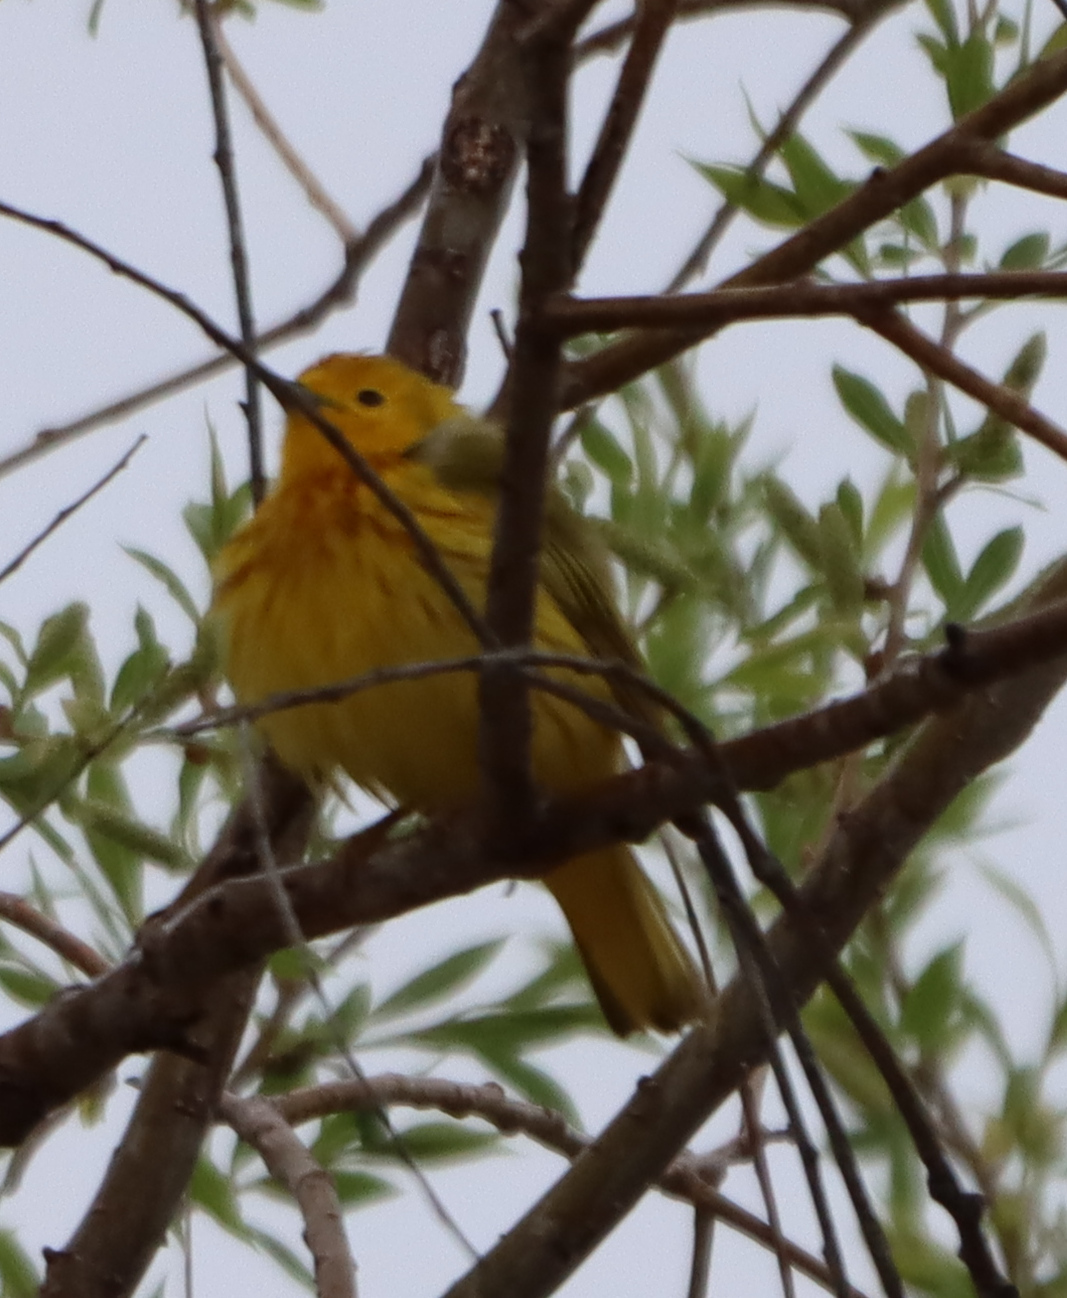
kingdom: Animalia
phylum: Chordata
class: Aves
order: Passeriformes
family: Parulidae
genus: Setophaga
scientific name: Setophaga petechia
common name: Yellow warbler
